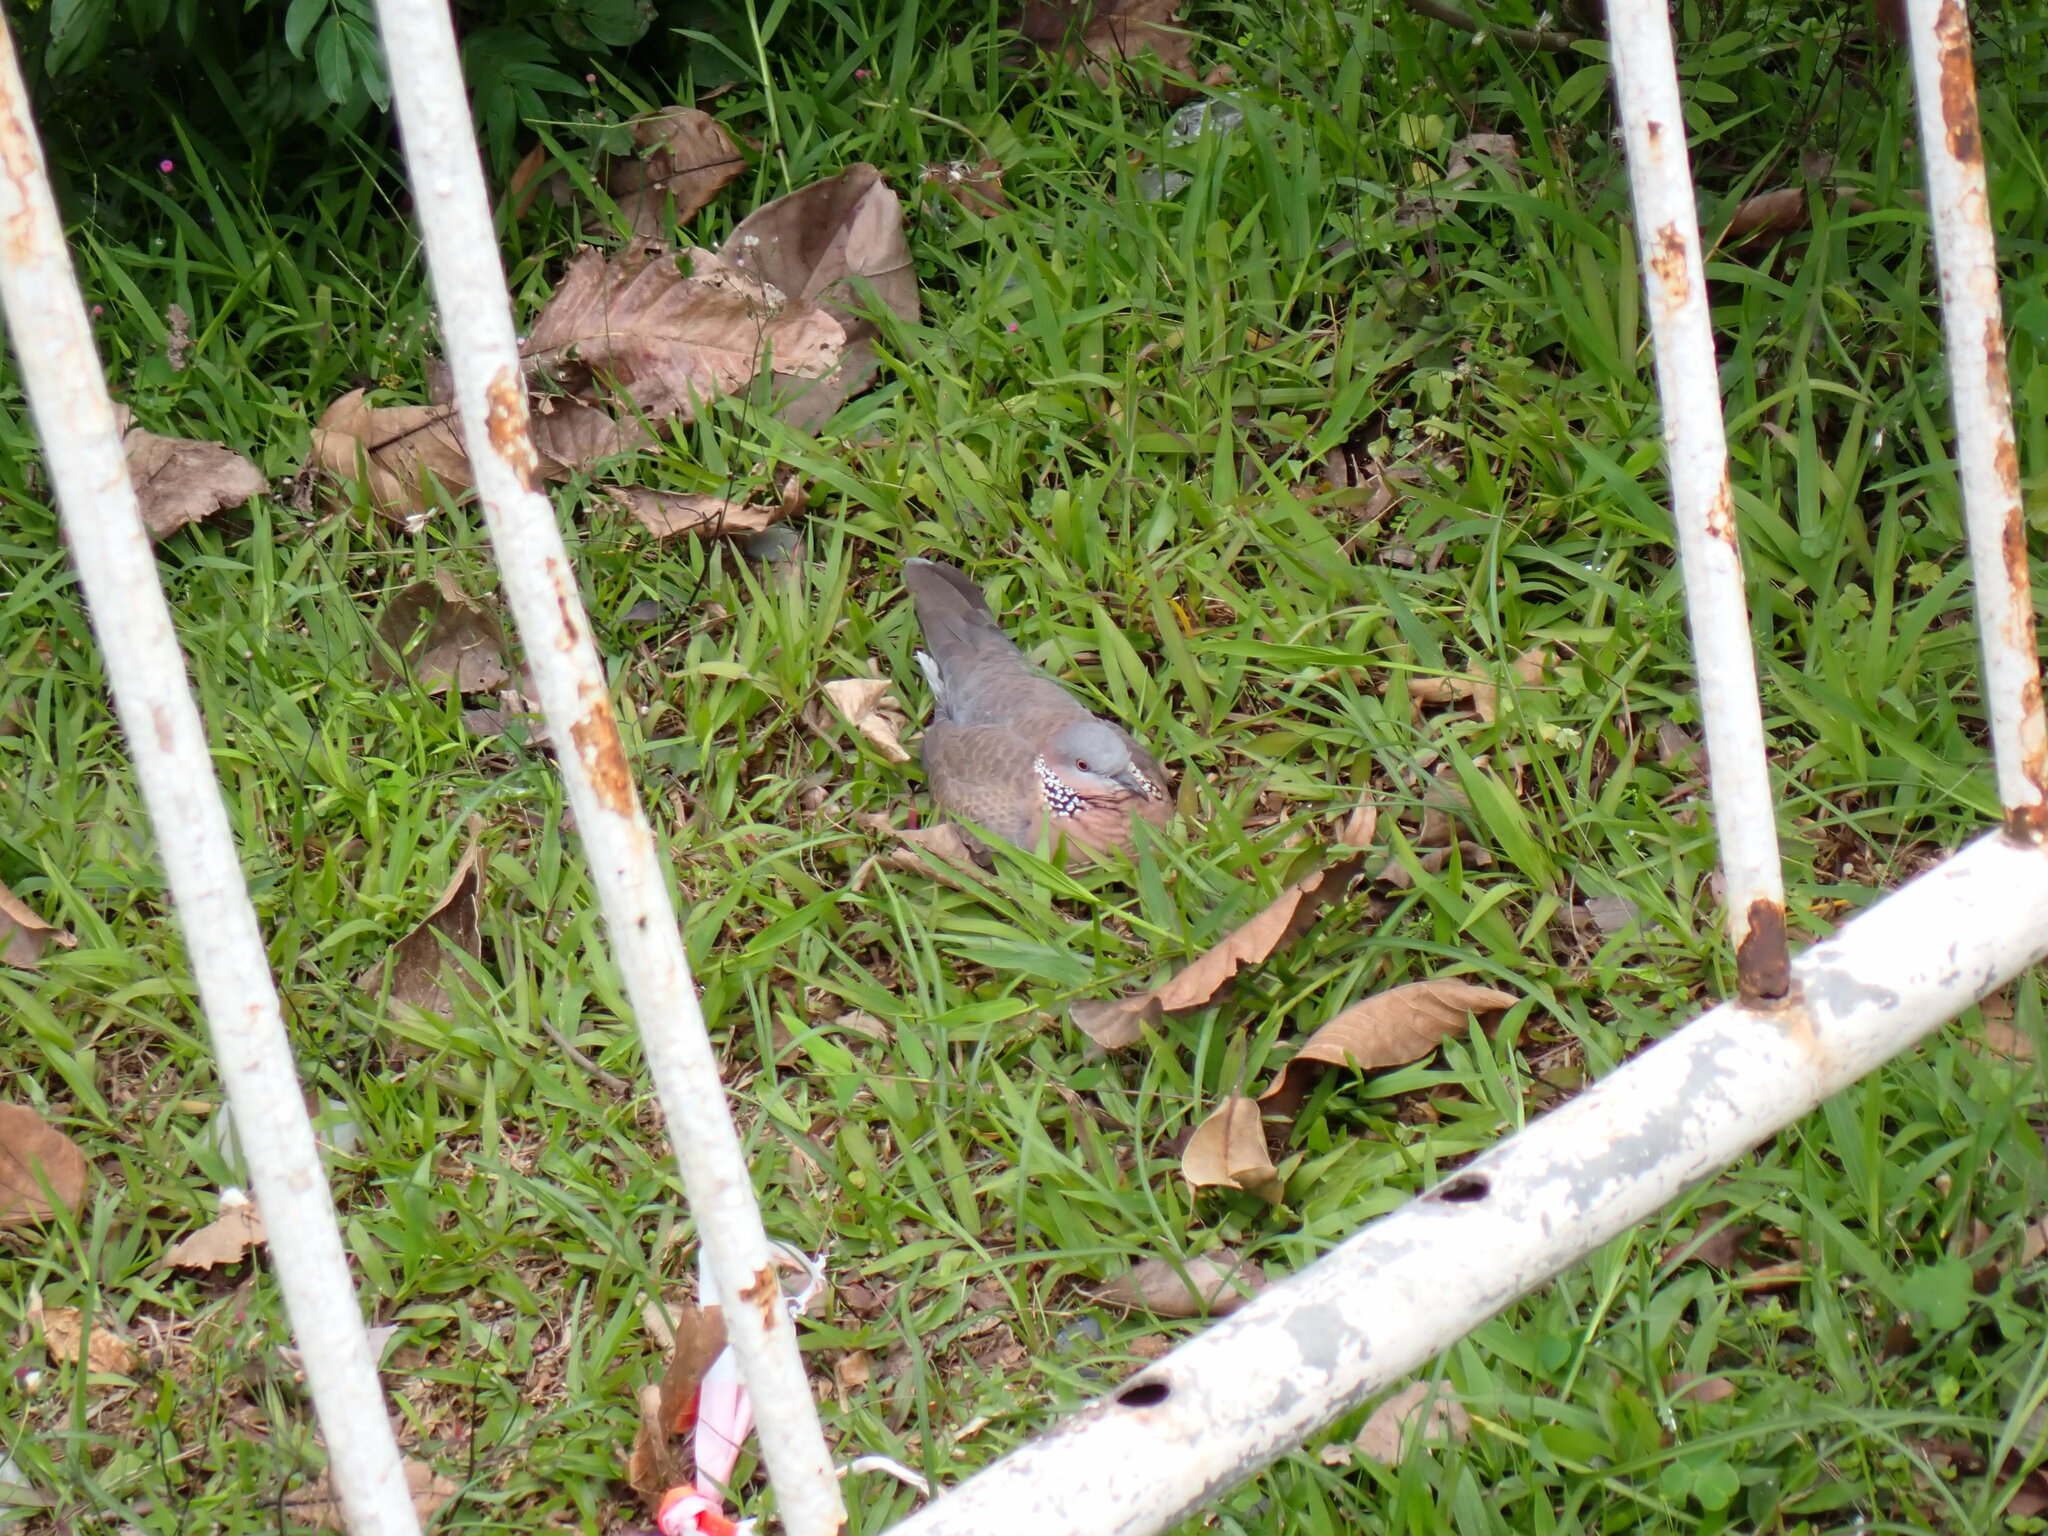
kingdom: Animalia
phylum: Chordata
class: Aves
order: Columbiformes
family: Columbidae
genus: Spilopelia
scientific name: Spilopelia chinensis
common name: Spotted dove
